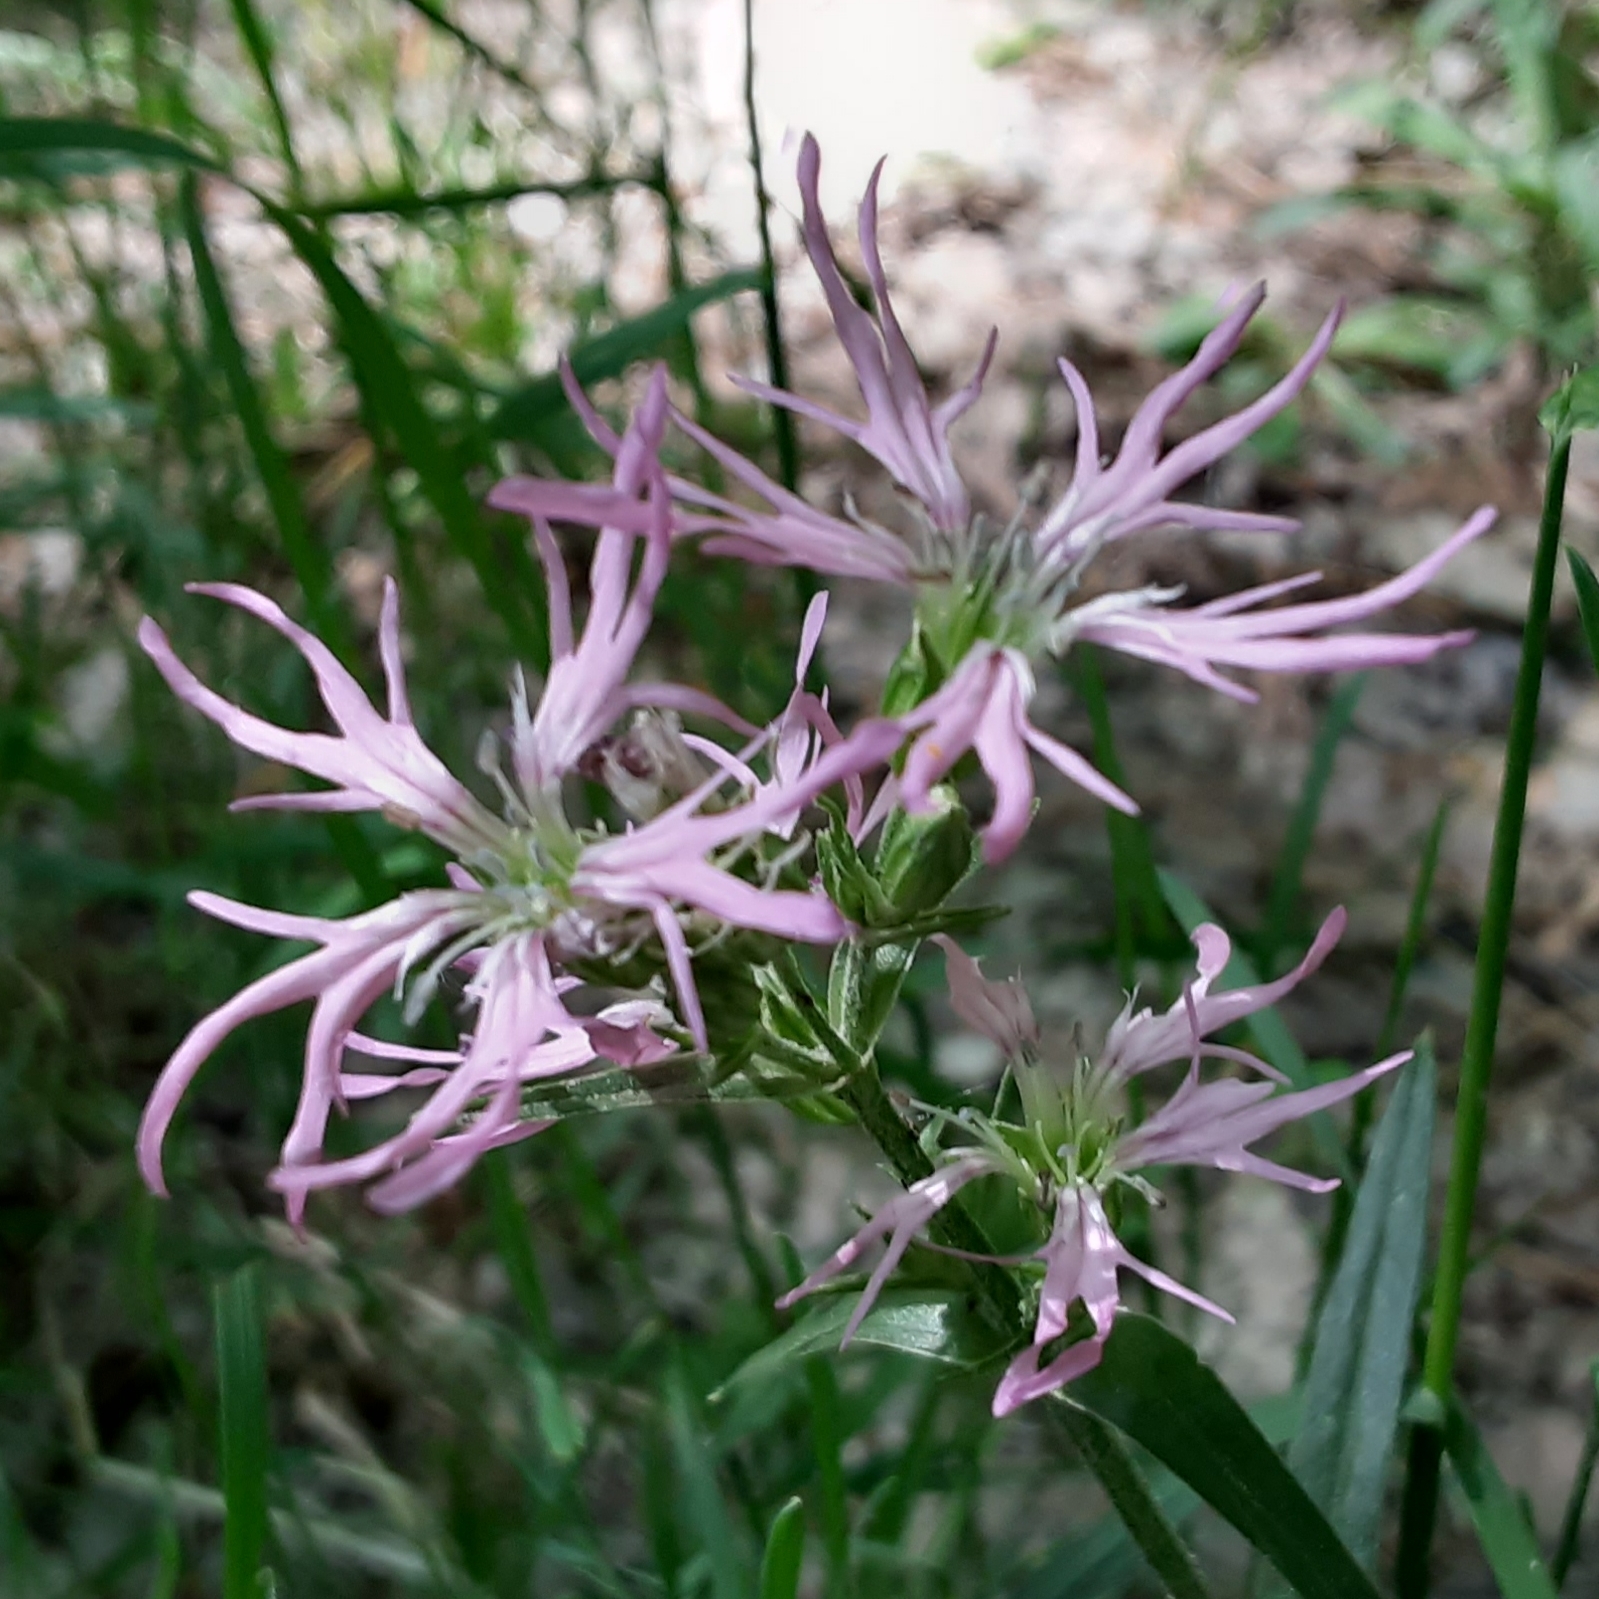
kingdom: Plantae
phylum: Tracheophyta
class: Magnoliopsida
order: Caryophyllales
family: Caryophyllaceae
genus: Silene
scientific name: Silene flos-cuculi
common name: Ragged-robin
